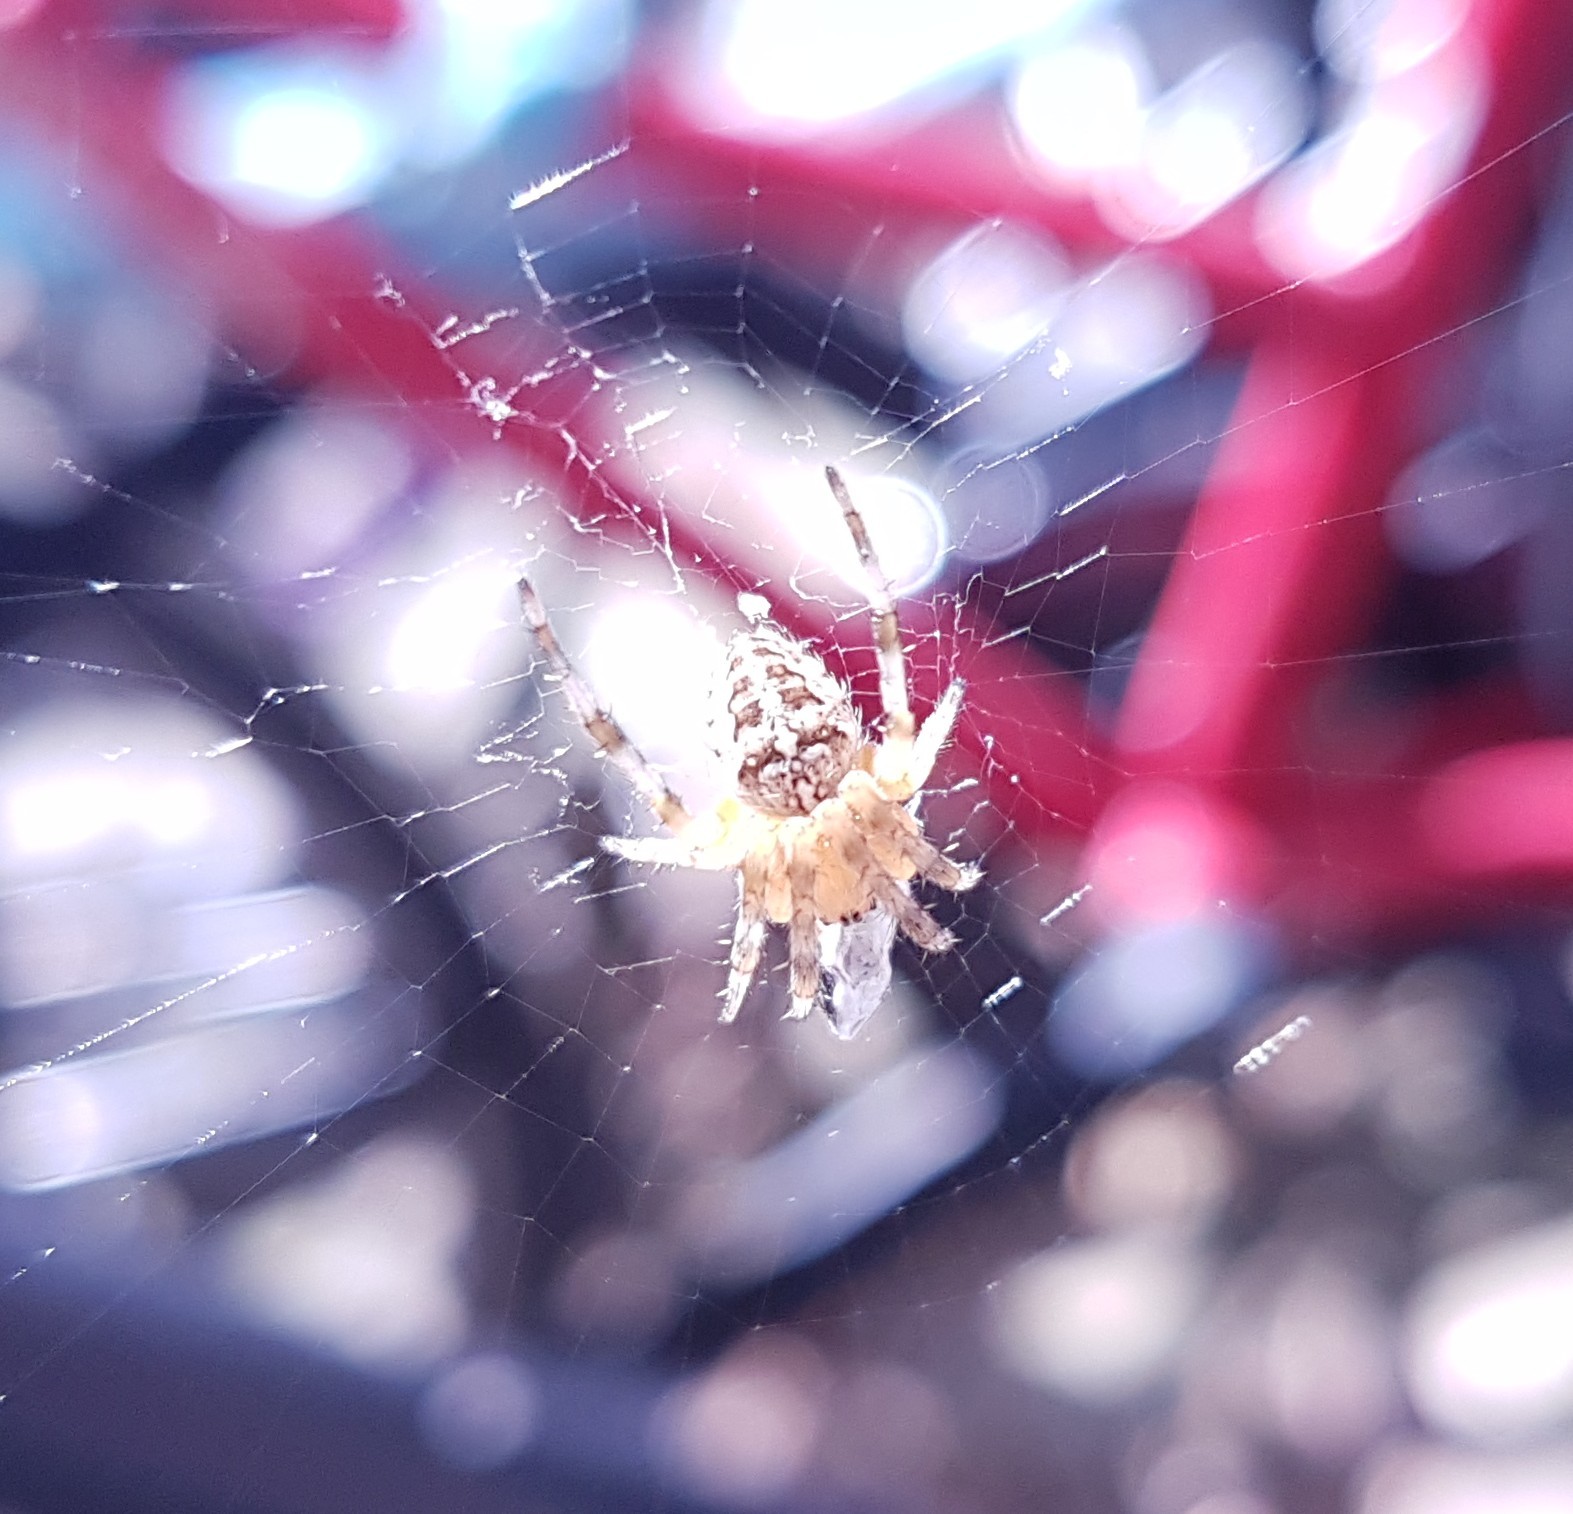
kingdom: Animalia
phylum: Arthropoda
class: Arachnida
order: Araneae
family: Araneidae
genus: Araneus
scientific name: Araneus diadematus
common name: Cross orbweaver
